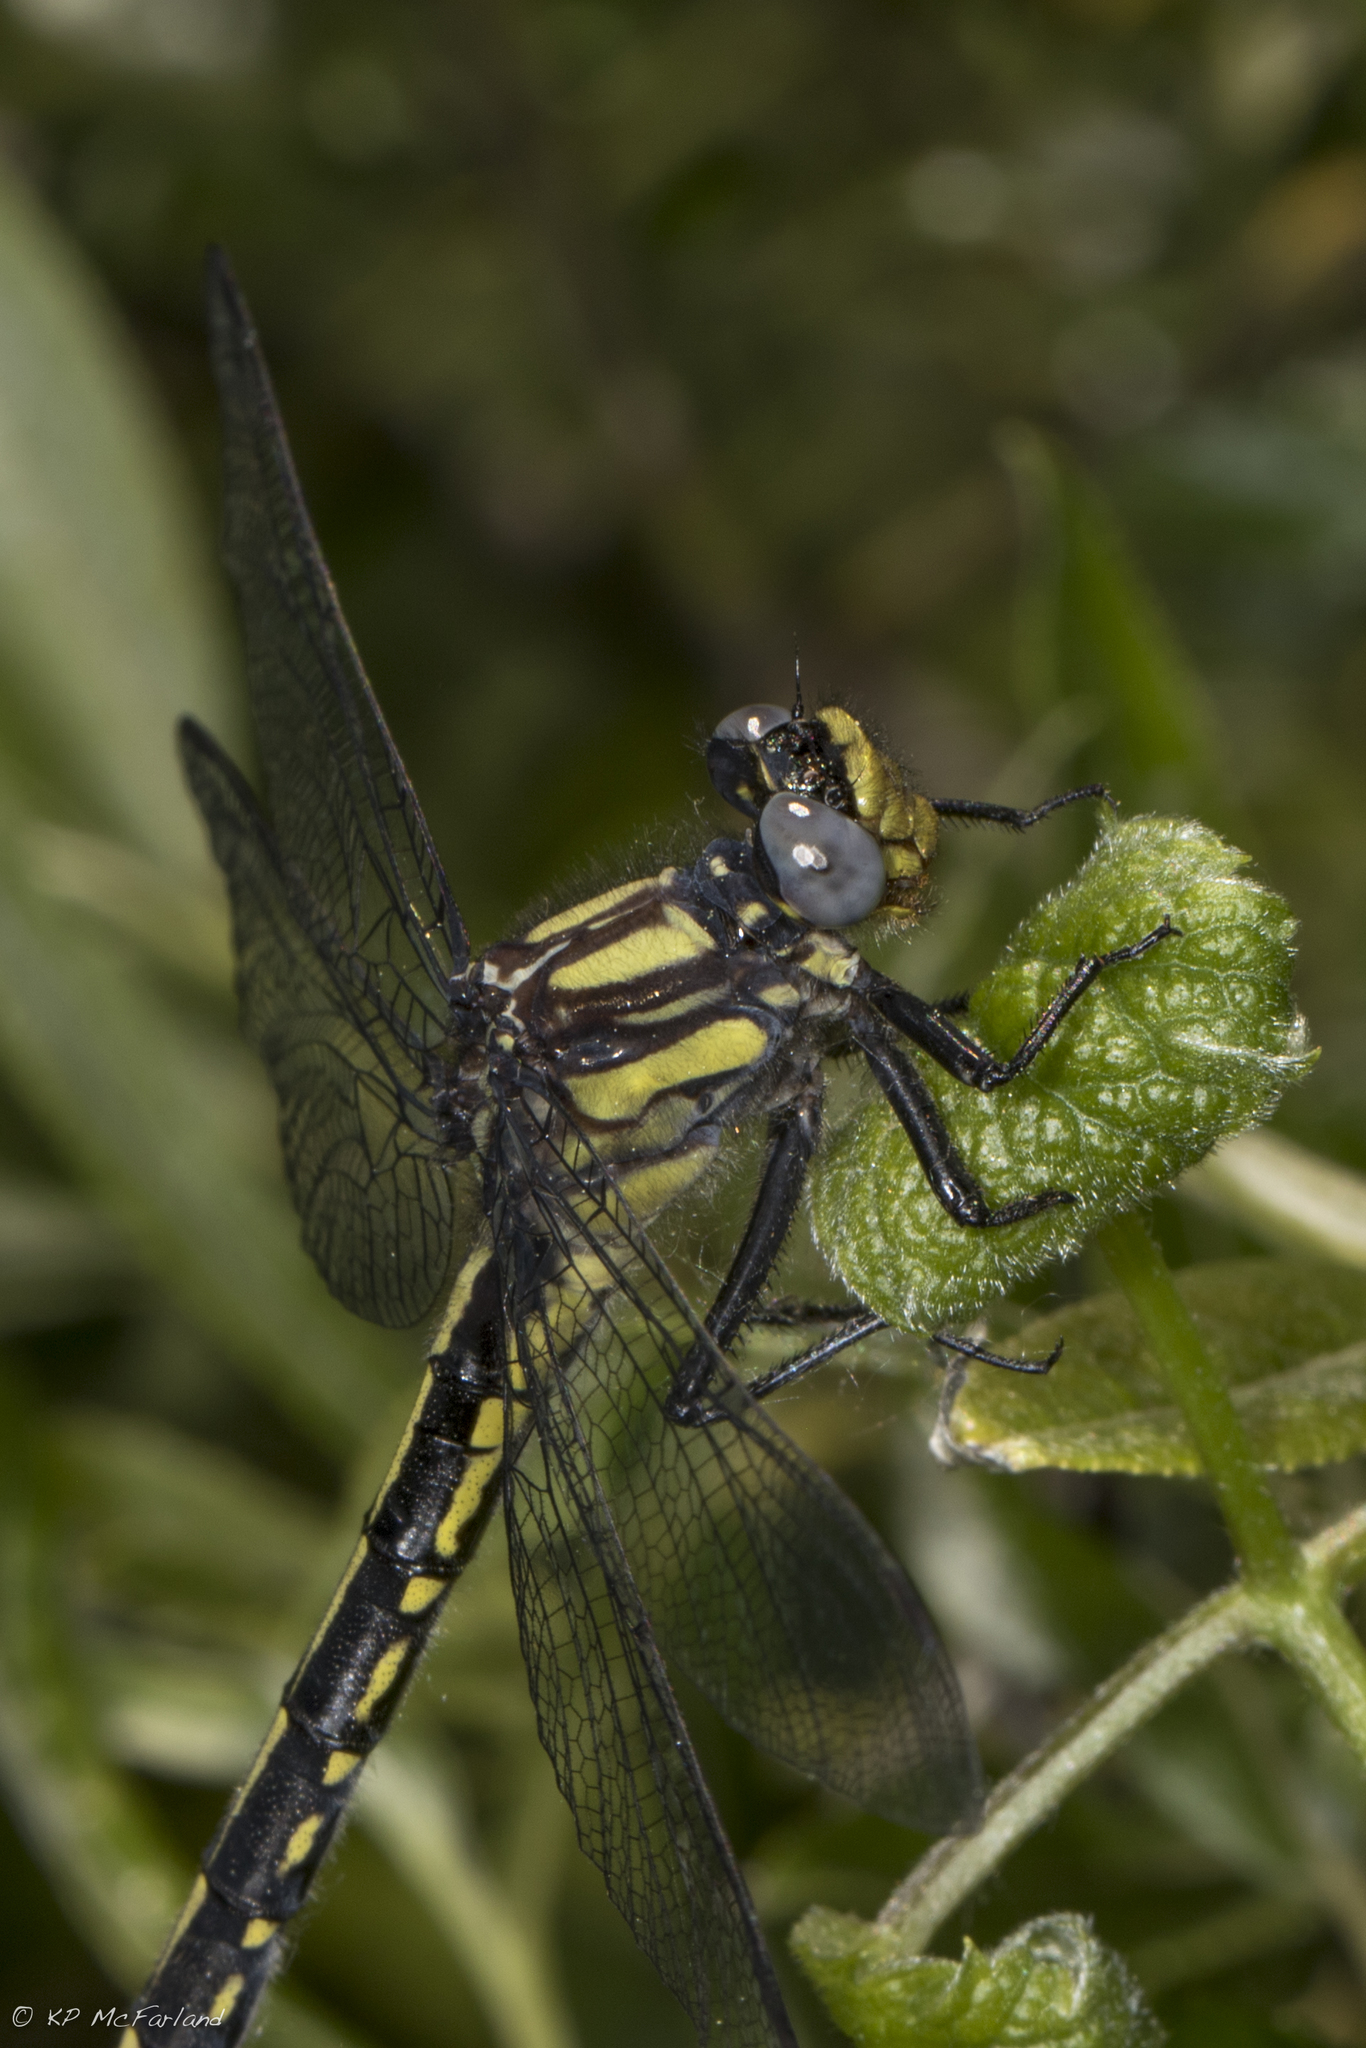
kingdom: Animalia
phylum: Arthropoda
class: Insecta
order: Odonata
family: Gomphidae
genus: Phanogomphus
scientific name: Phanogomphus borealis
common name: Beaverpond clubtail
